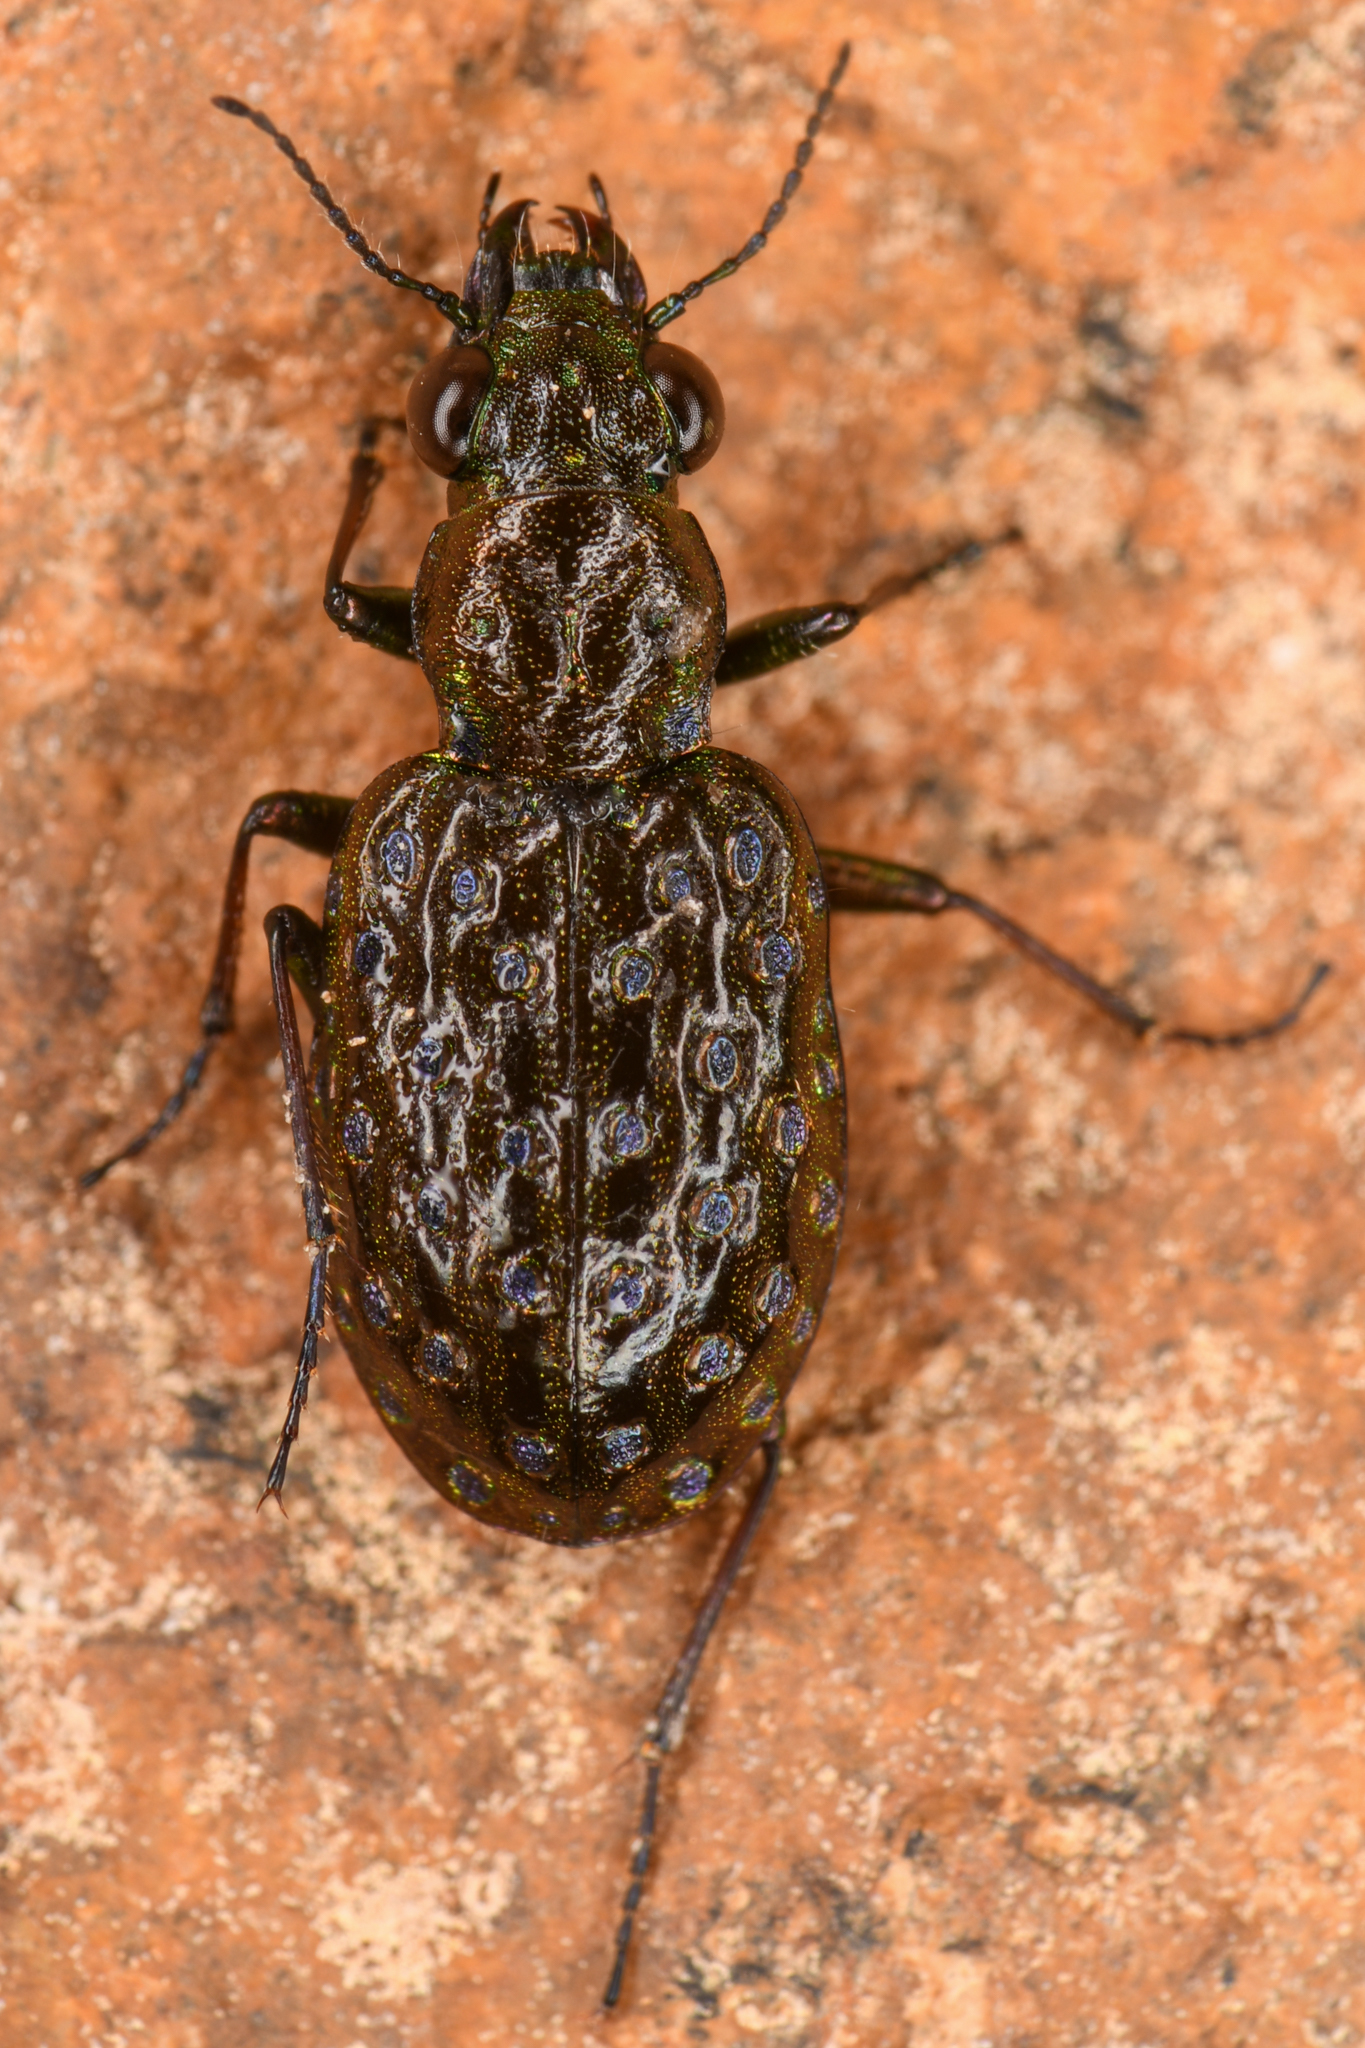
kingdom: Animalia
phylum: Arthropoda
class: Insecta
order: Coleoptera
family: Carabidae
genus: Elaphrus
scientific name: Elaphrus clairvillei
